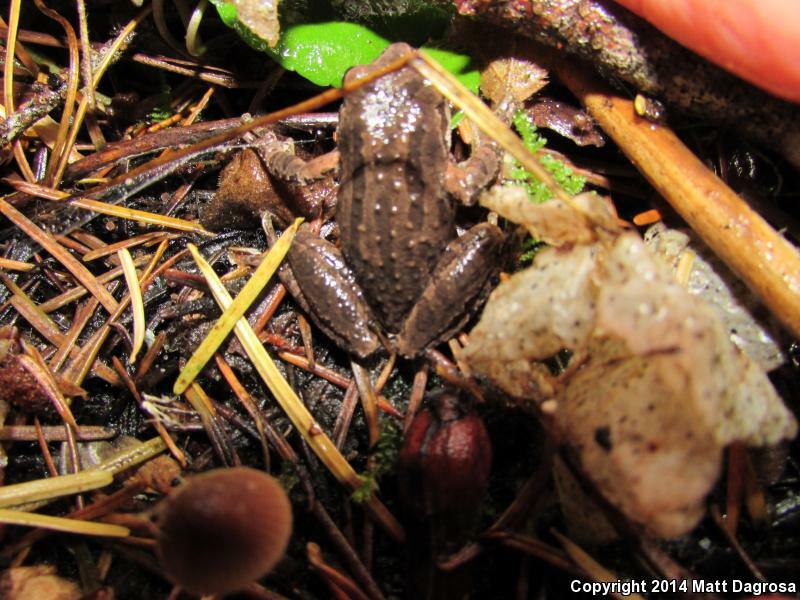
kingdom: Animalia
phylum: Chordata
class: Amphibia
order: Anura
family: Hylidae
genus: Pseudacris
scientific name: Pseudacris regilla
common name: Pacific chorus frog
